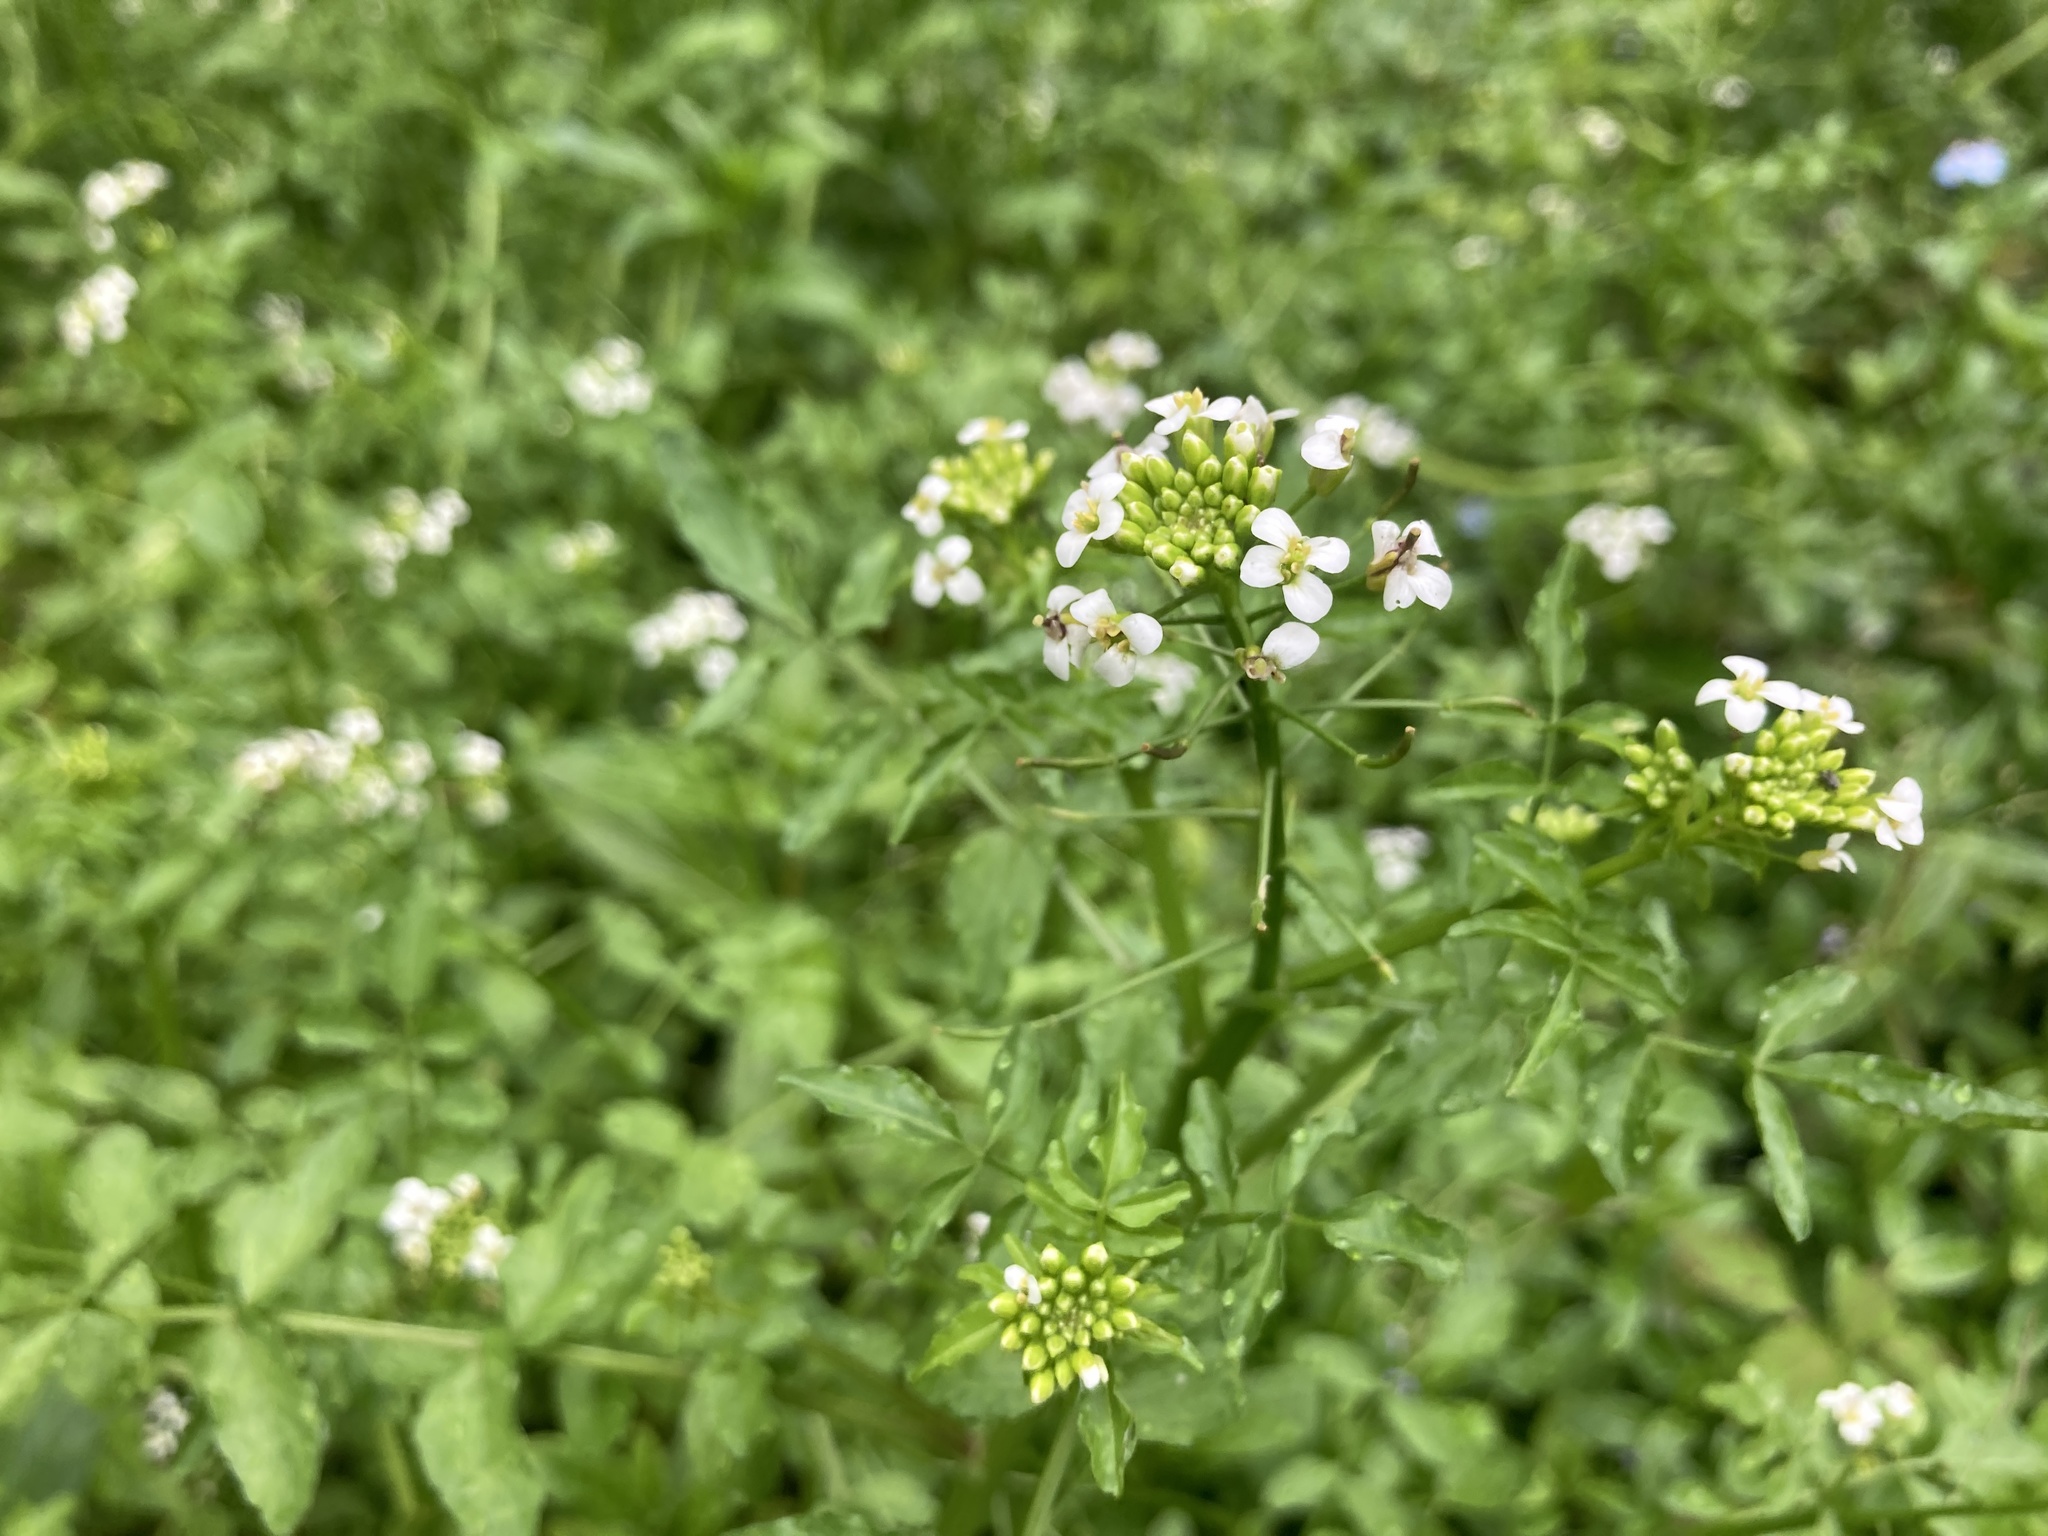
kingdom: Plantae
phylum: Tracheophyta
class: Magnoliopsida
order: Brassicales
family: Brassicaceae
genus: Nasturtium
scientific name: Nasturtium officinale
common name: Watercress
